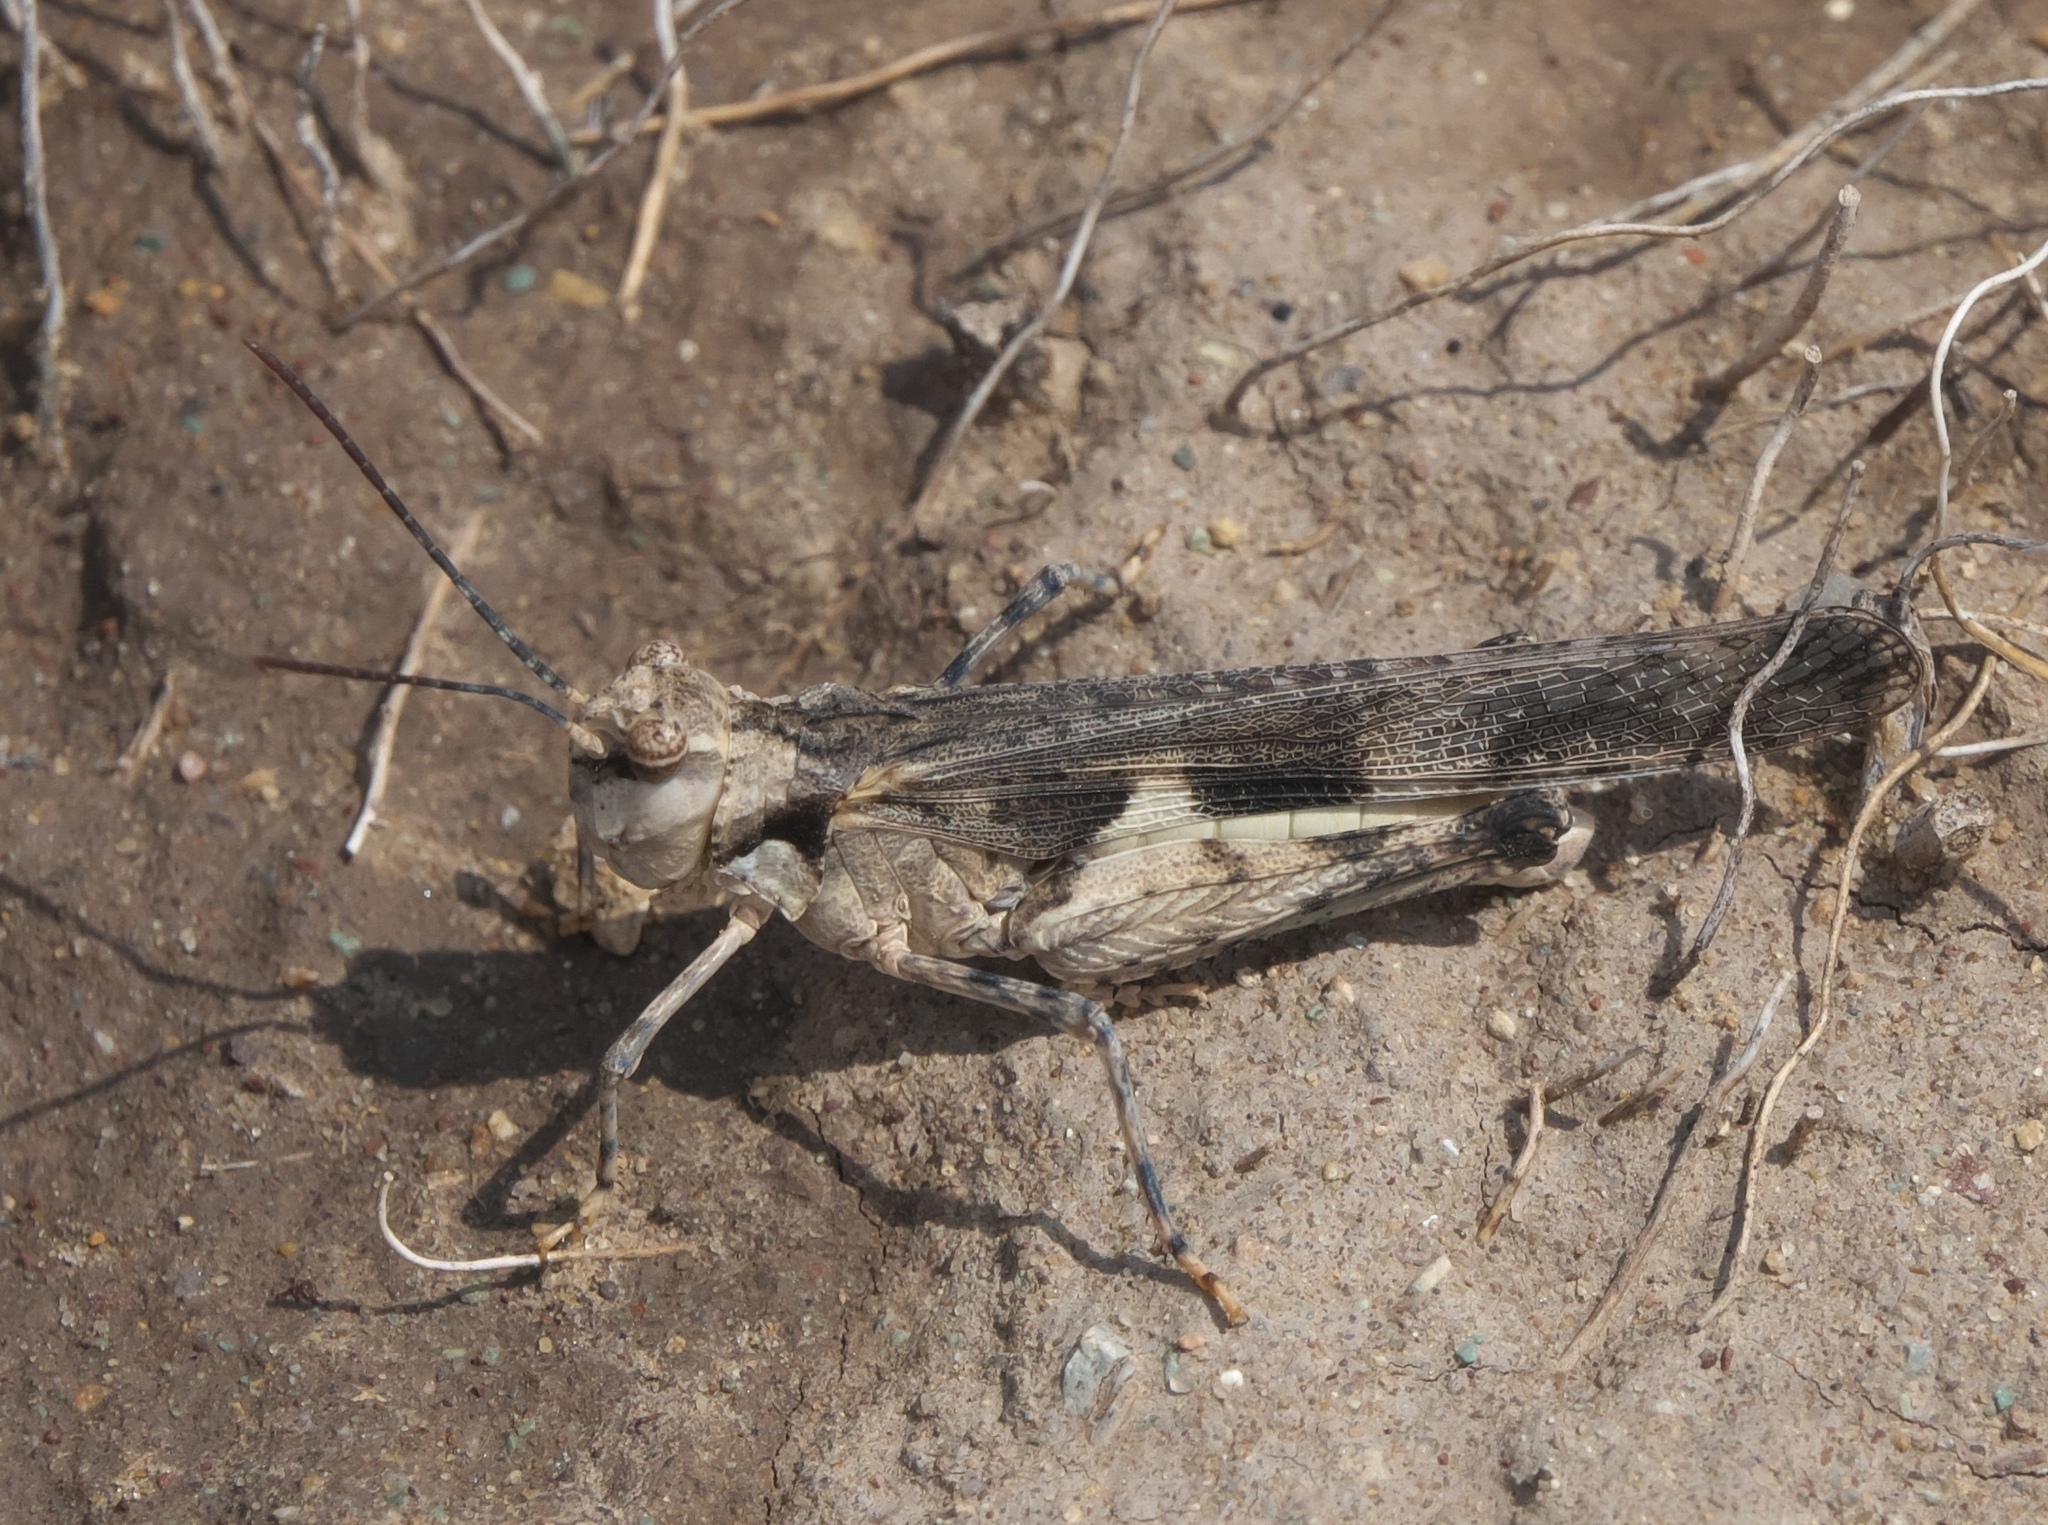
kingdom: Animalia
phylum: Arthropoda
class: Insecta
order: Orthoptera
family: Acrididae
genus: Mestobregma
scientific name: Mestobregma plattei
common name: Platte range grasshopper
